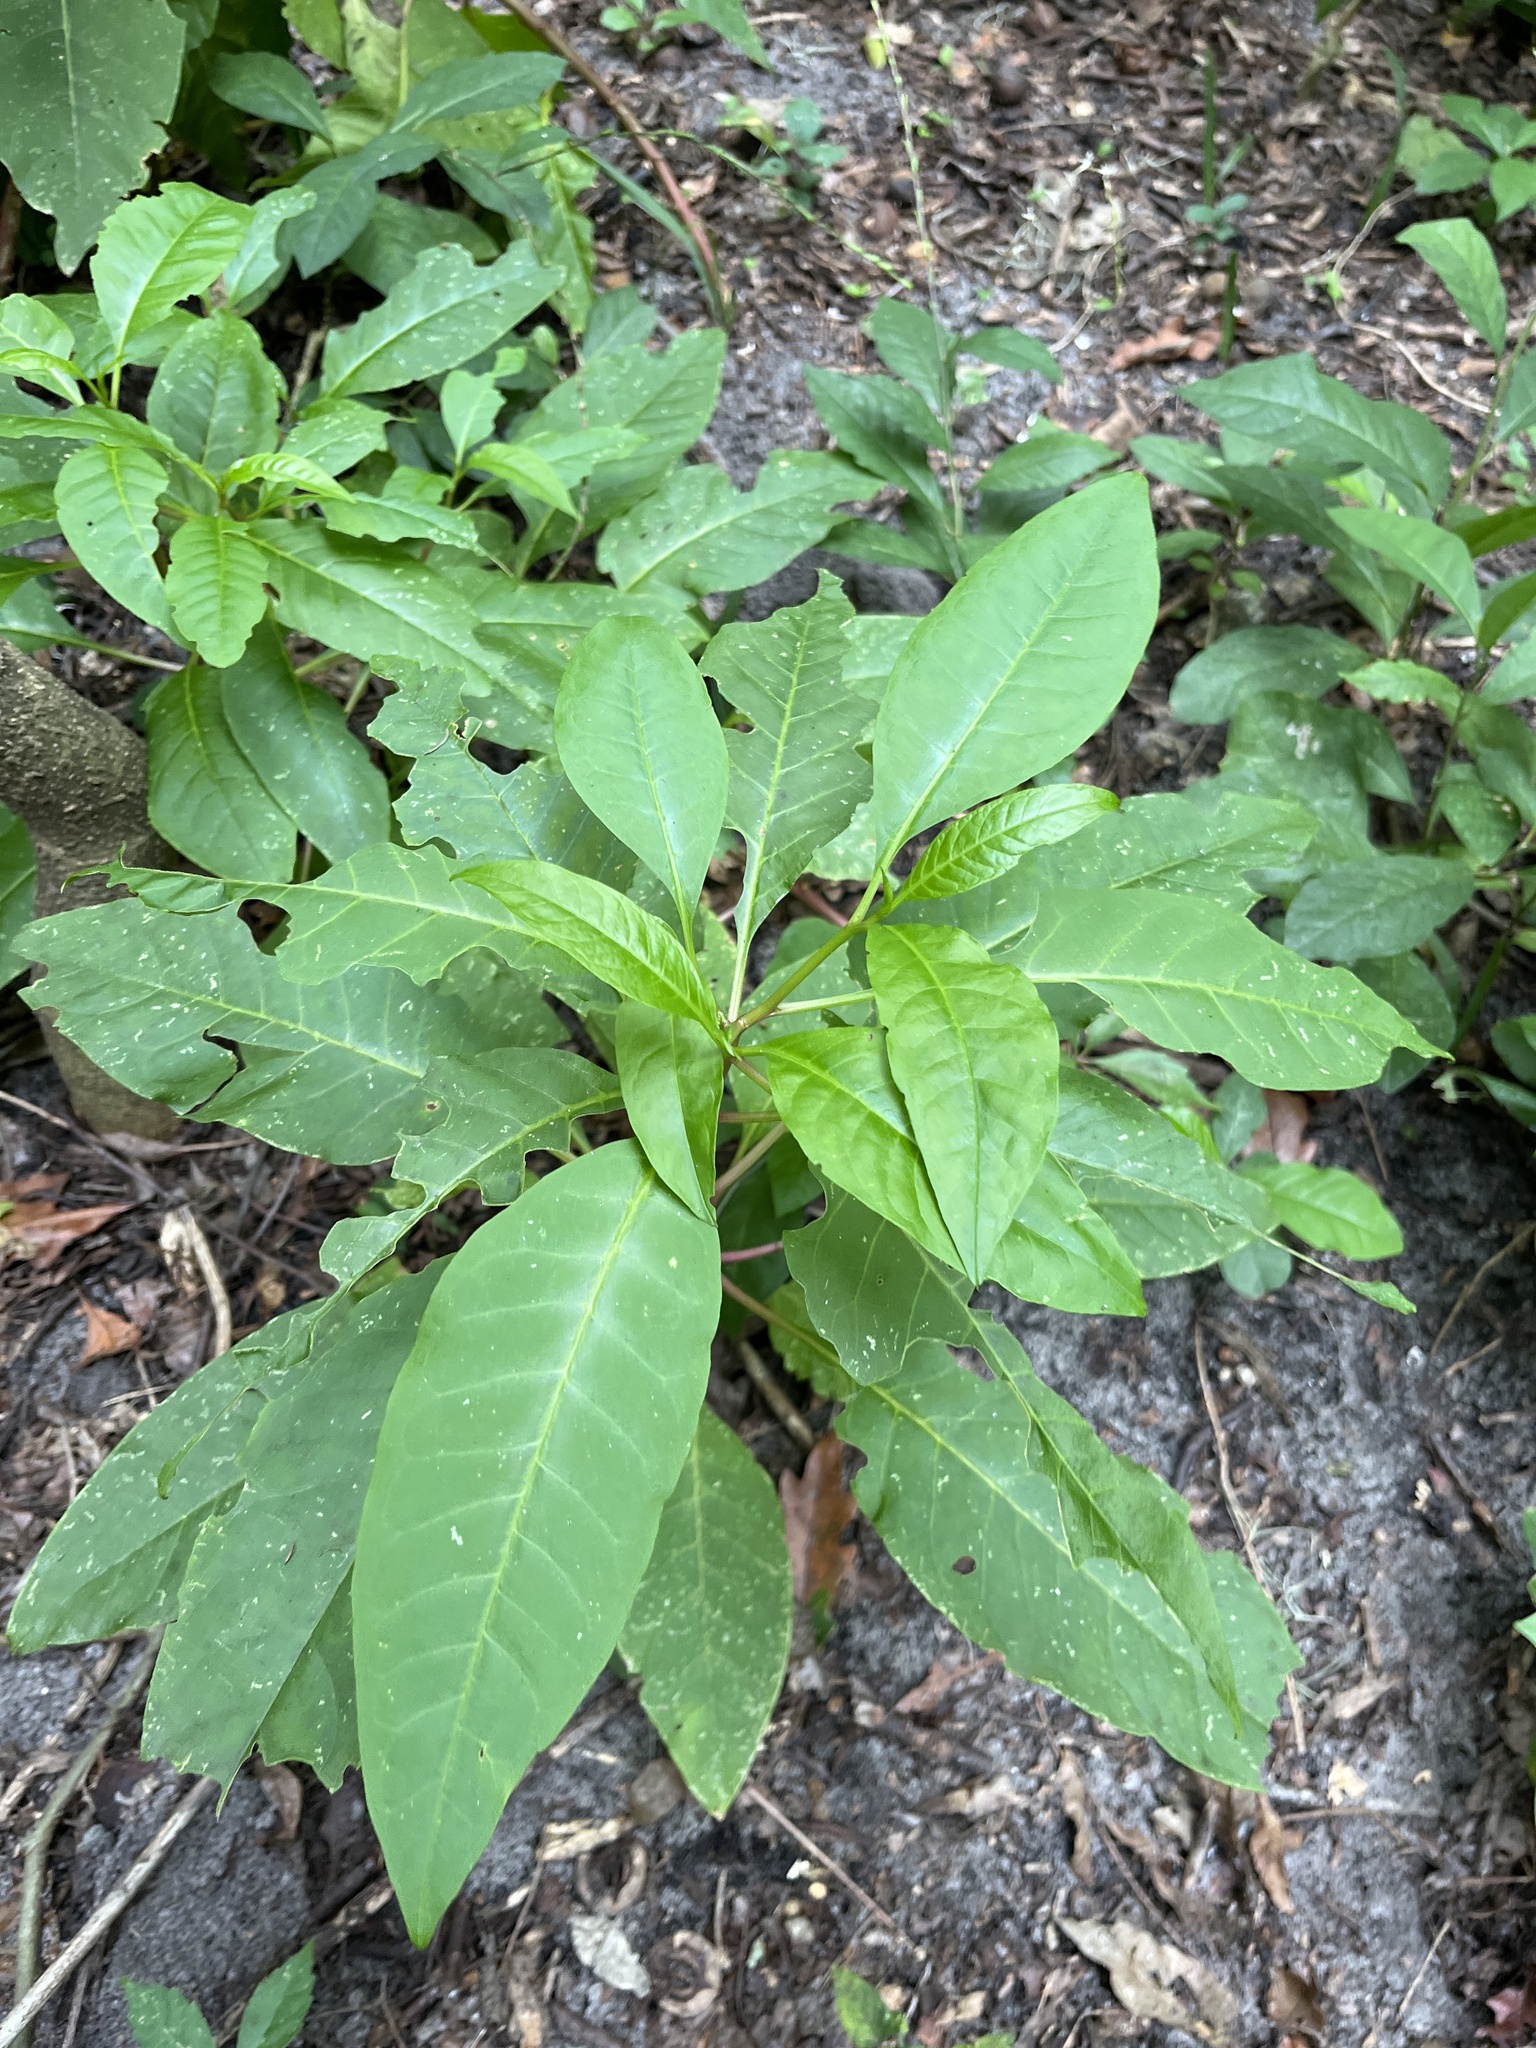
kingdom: Plantae
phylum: Tracheophyta
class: Magnoliopsida
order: Caryophyllales
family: Phytolaccaceae
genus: Phytolacca
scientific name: Phytolacca americana
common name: American pokeweed
